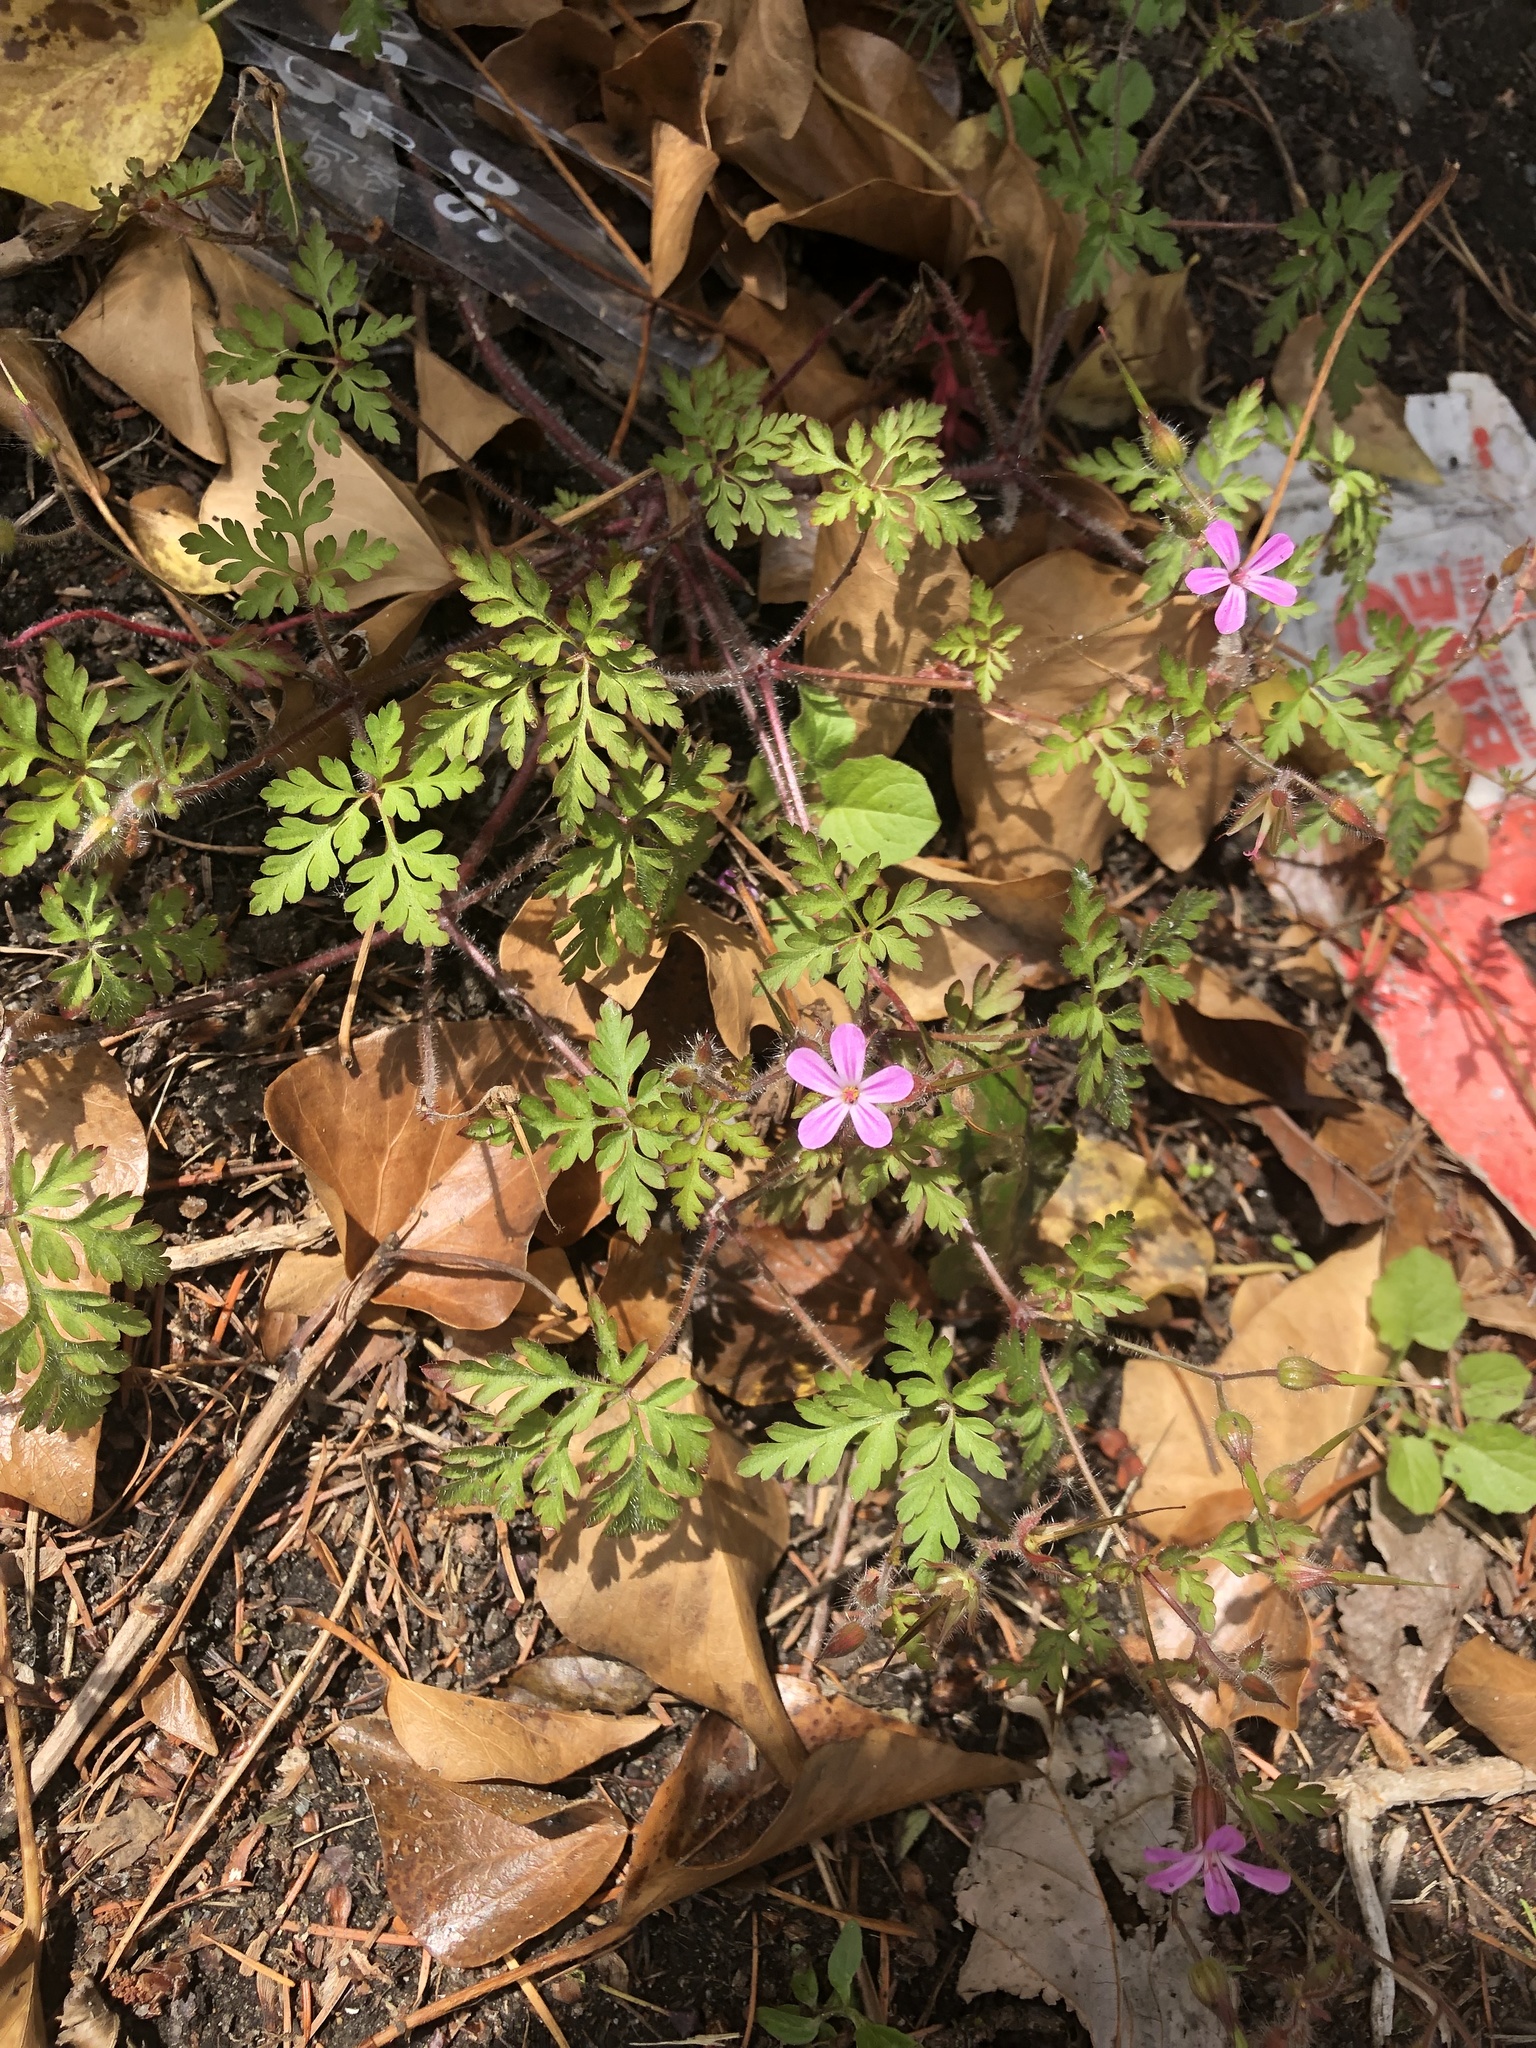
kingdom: Plantae
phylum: Tracheophyta
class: Magnoliopsida
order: Geraniales
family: Geraniaceae
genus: Geranium
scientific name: Geranium robertianum
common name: Herb-robert
